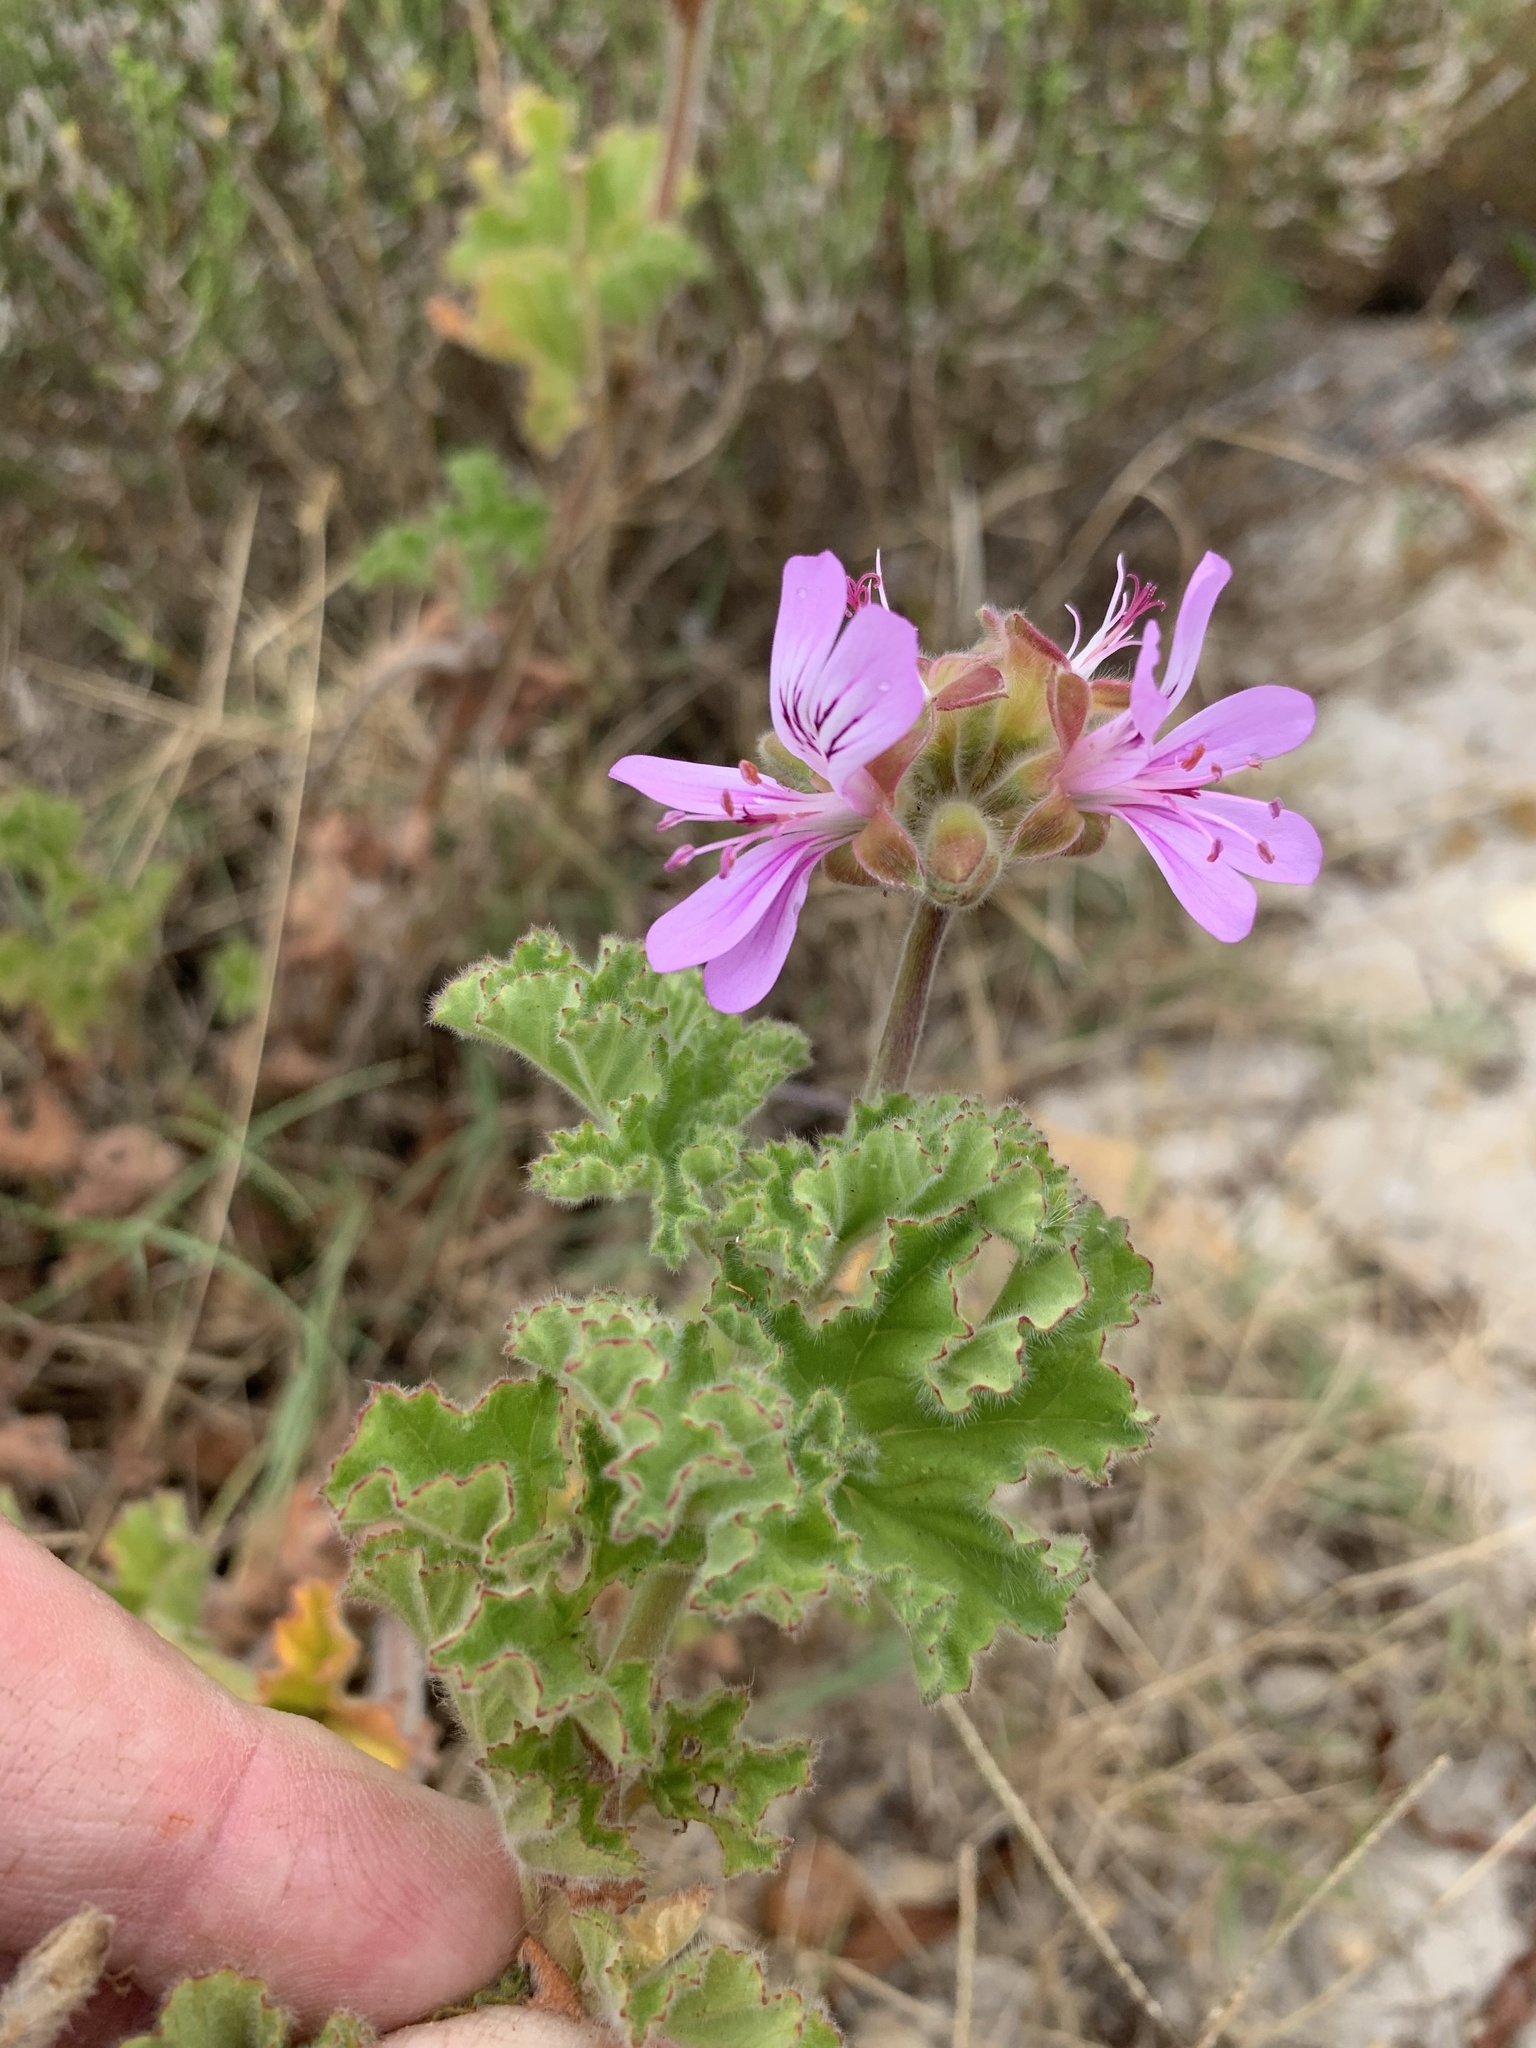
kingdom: Plantae
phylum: Tracheophyta
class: Magnoliopsida
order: Geraniales
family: Geraniaceae
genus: Pelargonium
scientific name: Pelargonium capitatum
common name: Rose scented geranium
